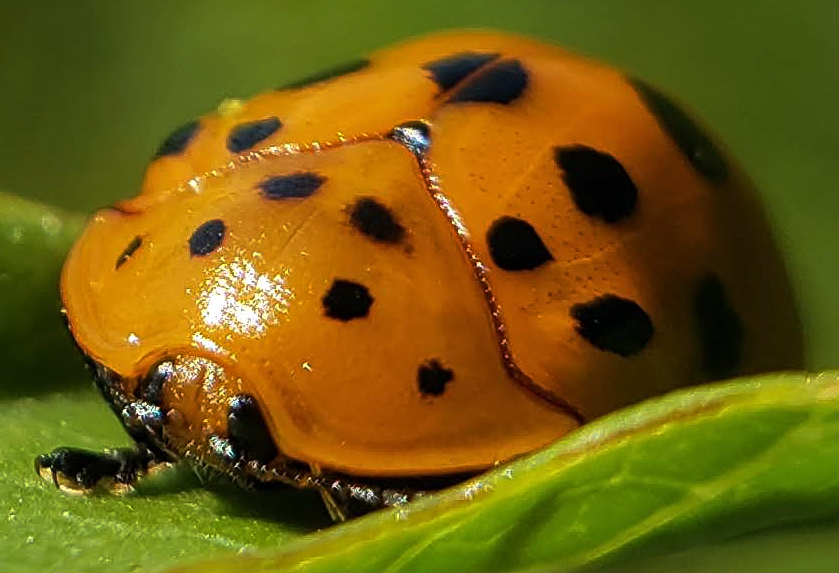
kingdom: Animalia
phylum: Arthropoda
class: Insecta
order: Coleoptera
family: Chrysomelidae
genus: Chelymorpha
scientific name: Chelymorpha cassidea
